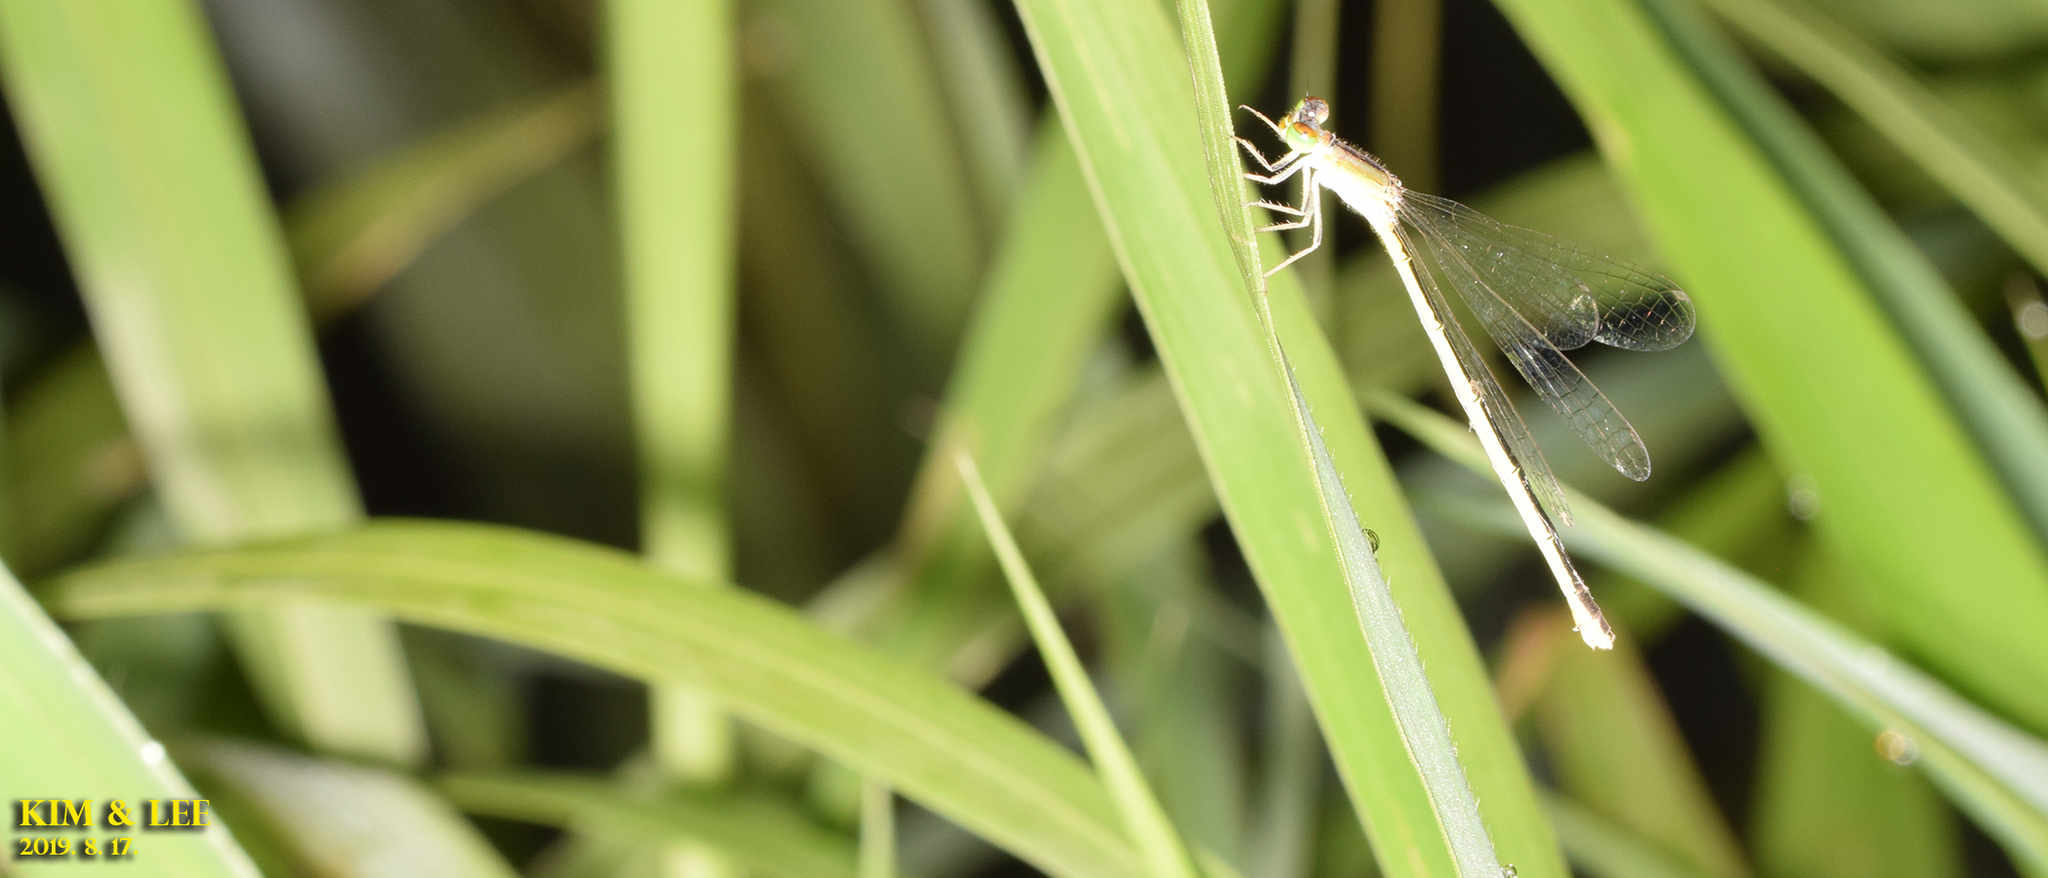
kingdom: Animalia
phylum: Arthropoda
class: Insecta
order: Odonata
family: Coenagrionidae
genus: Ischnura
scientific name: Ischnura asiatica
